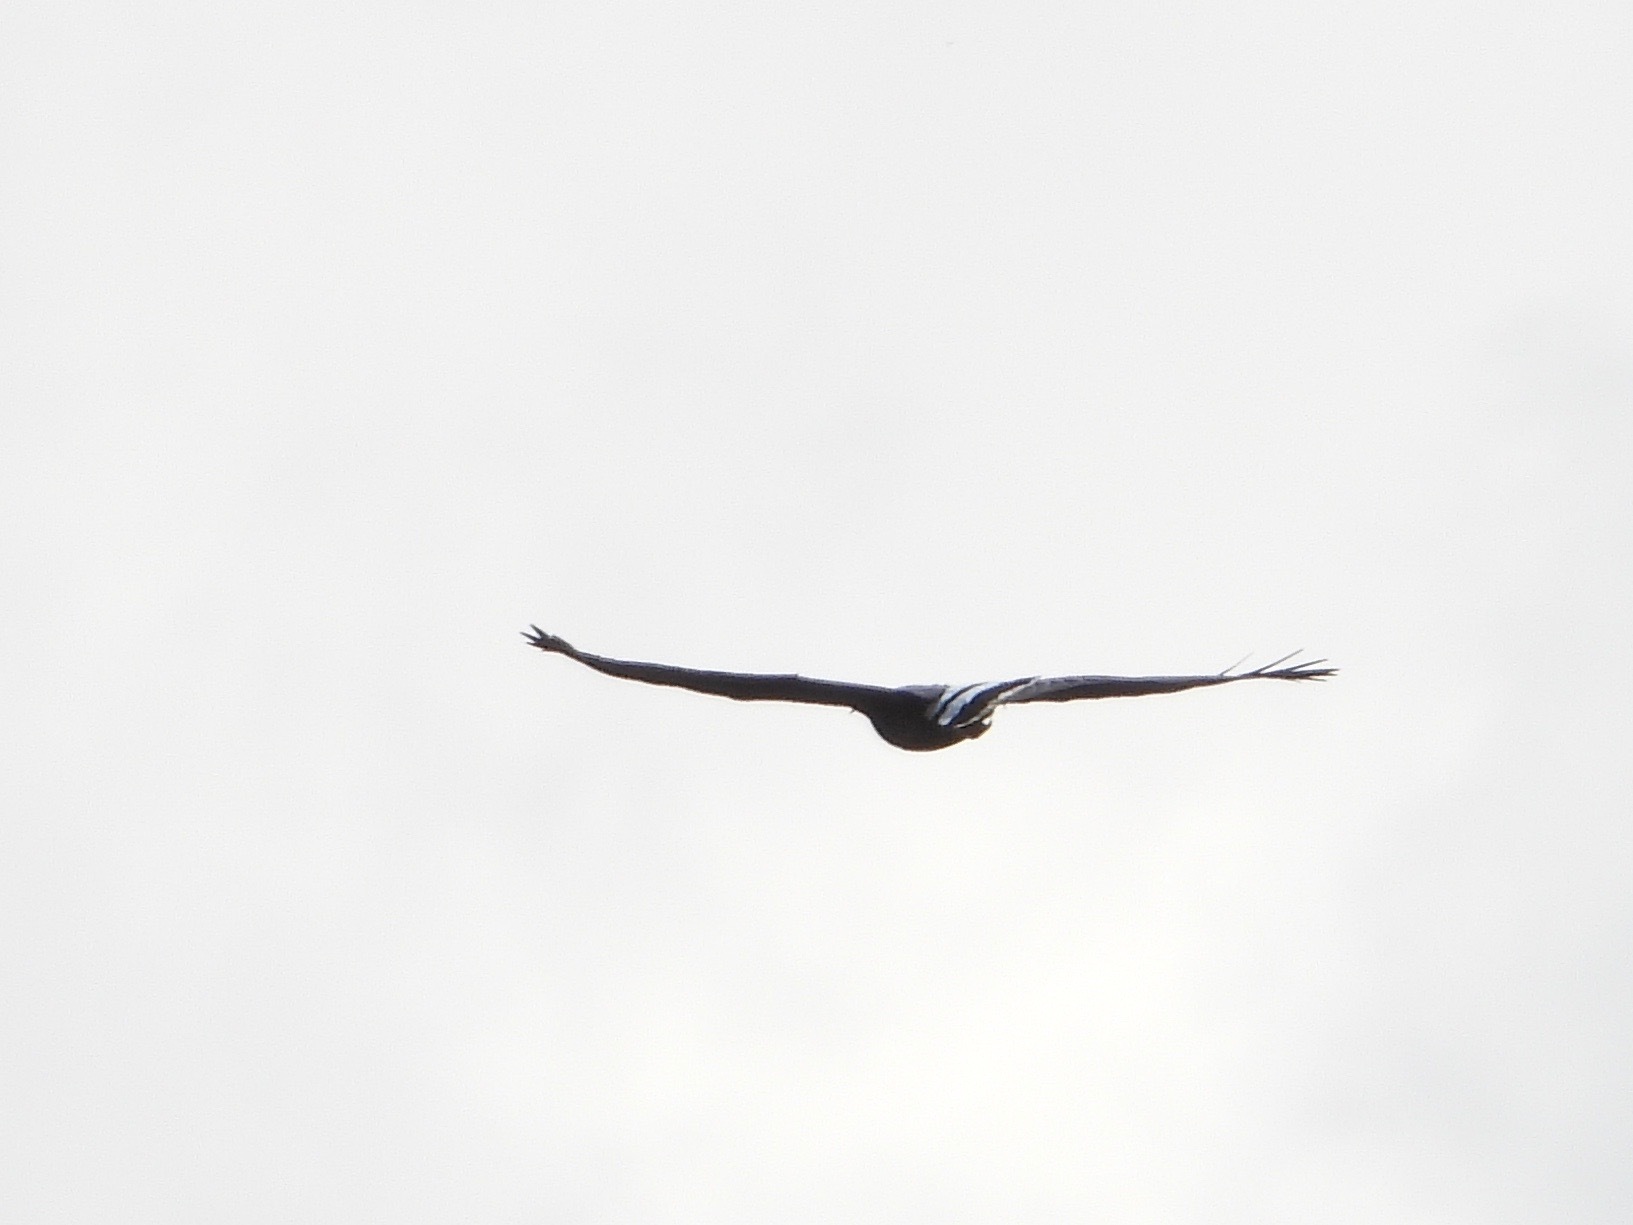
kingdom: Animalia
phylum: Chordata
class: Aves
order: Accipitriformes
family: Accipitridae
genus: Buteogallus
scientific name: Buteogallus urubitinga
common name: Great black hawk
